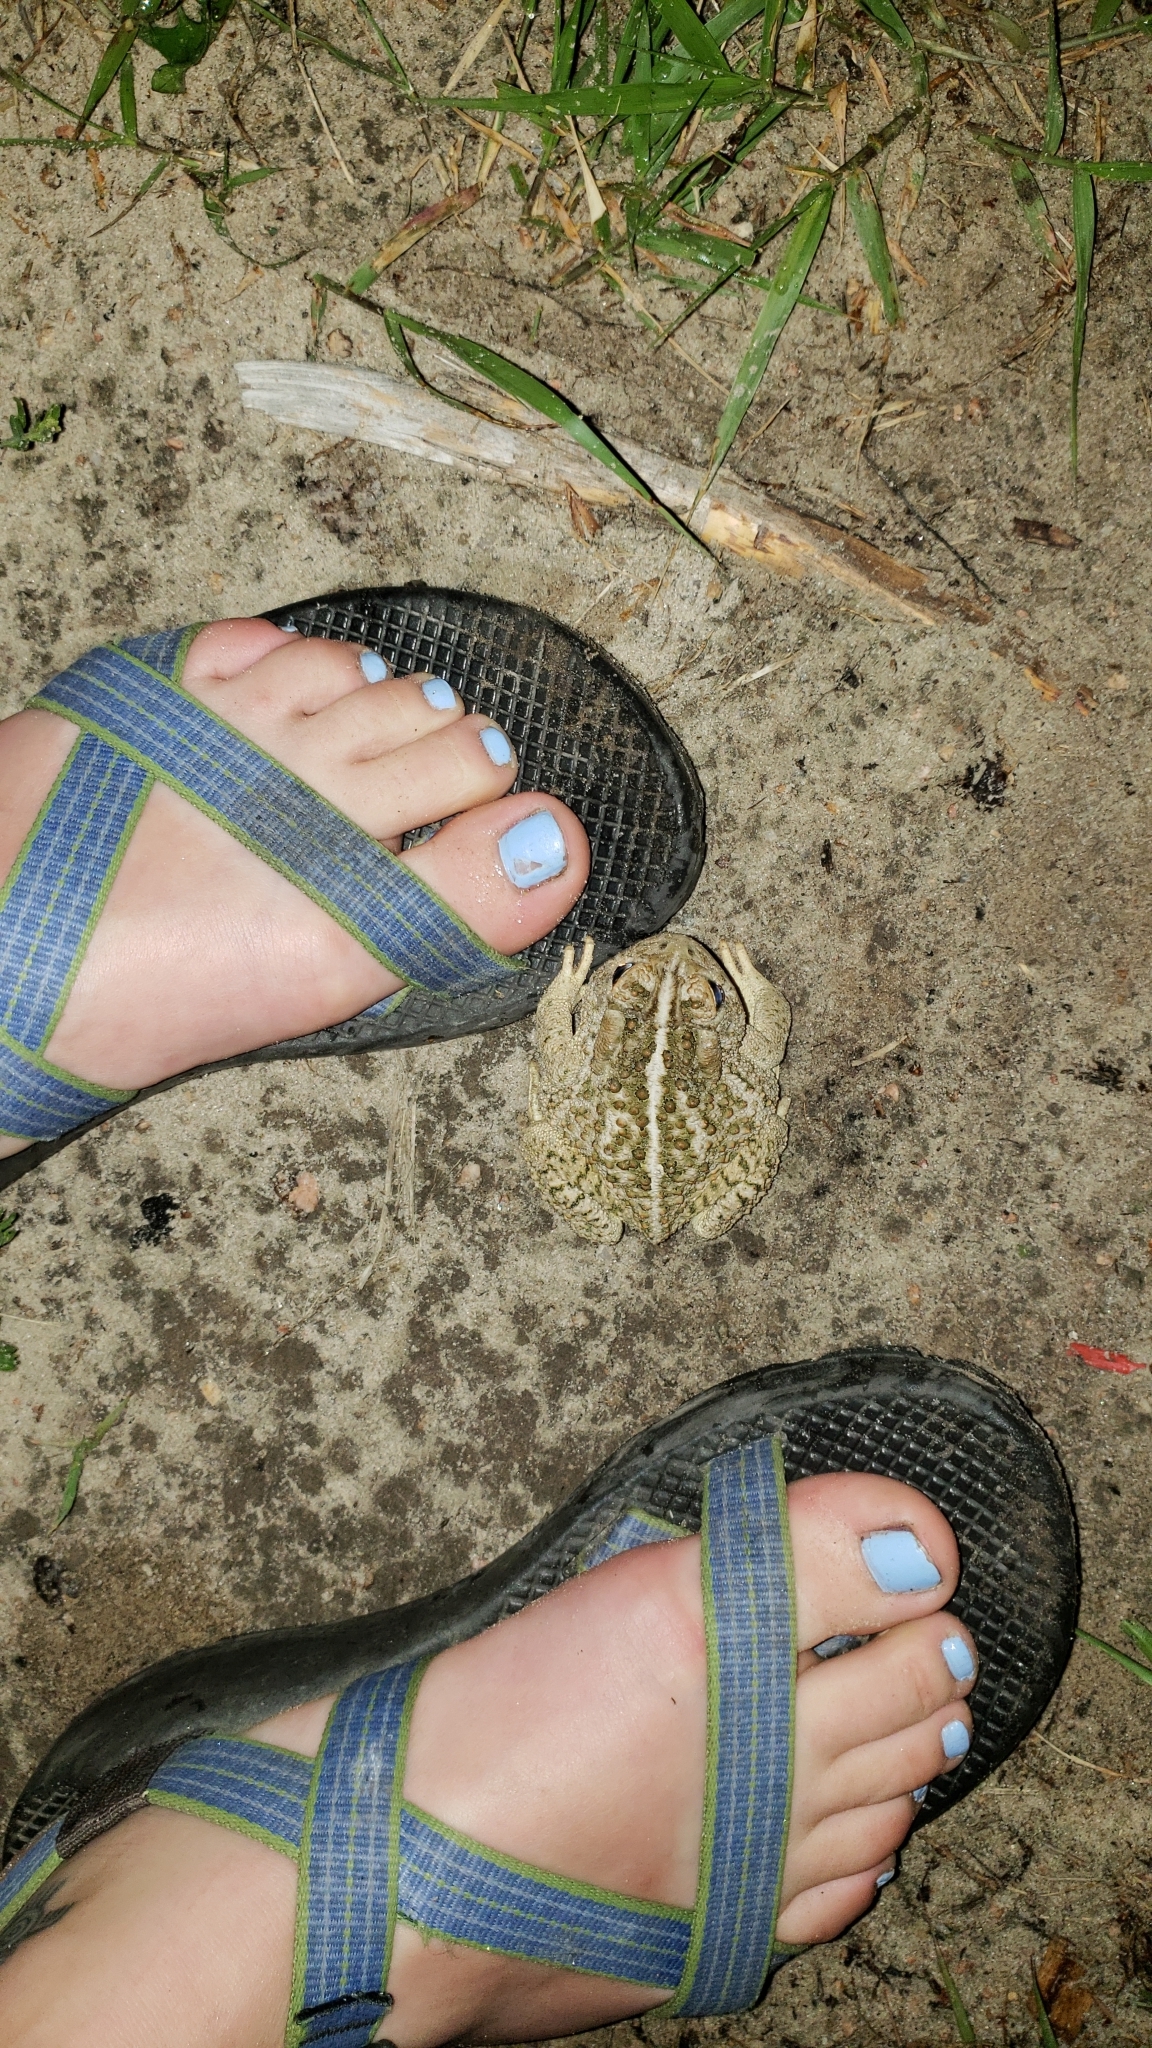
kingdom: Animalia
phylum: Chordata
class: Amphibia
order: Anura
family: Bufonidae
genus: Anaxyrus
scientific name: Anaxyrus woodhousii
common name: Woodhouse's toad
